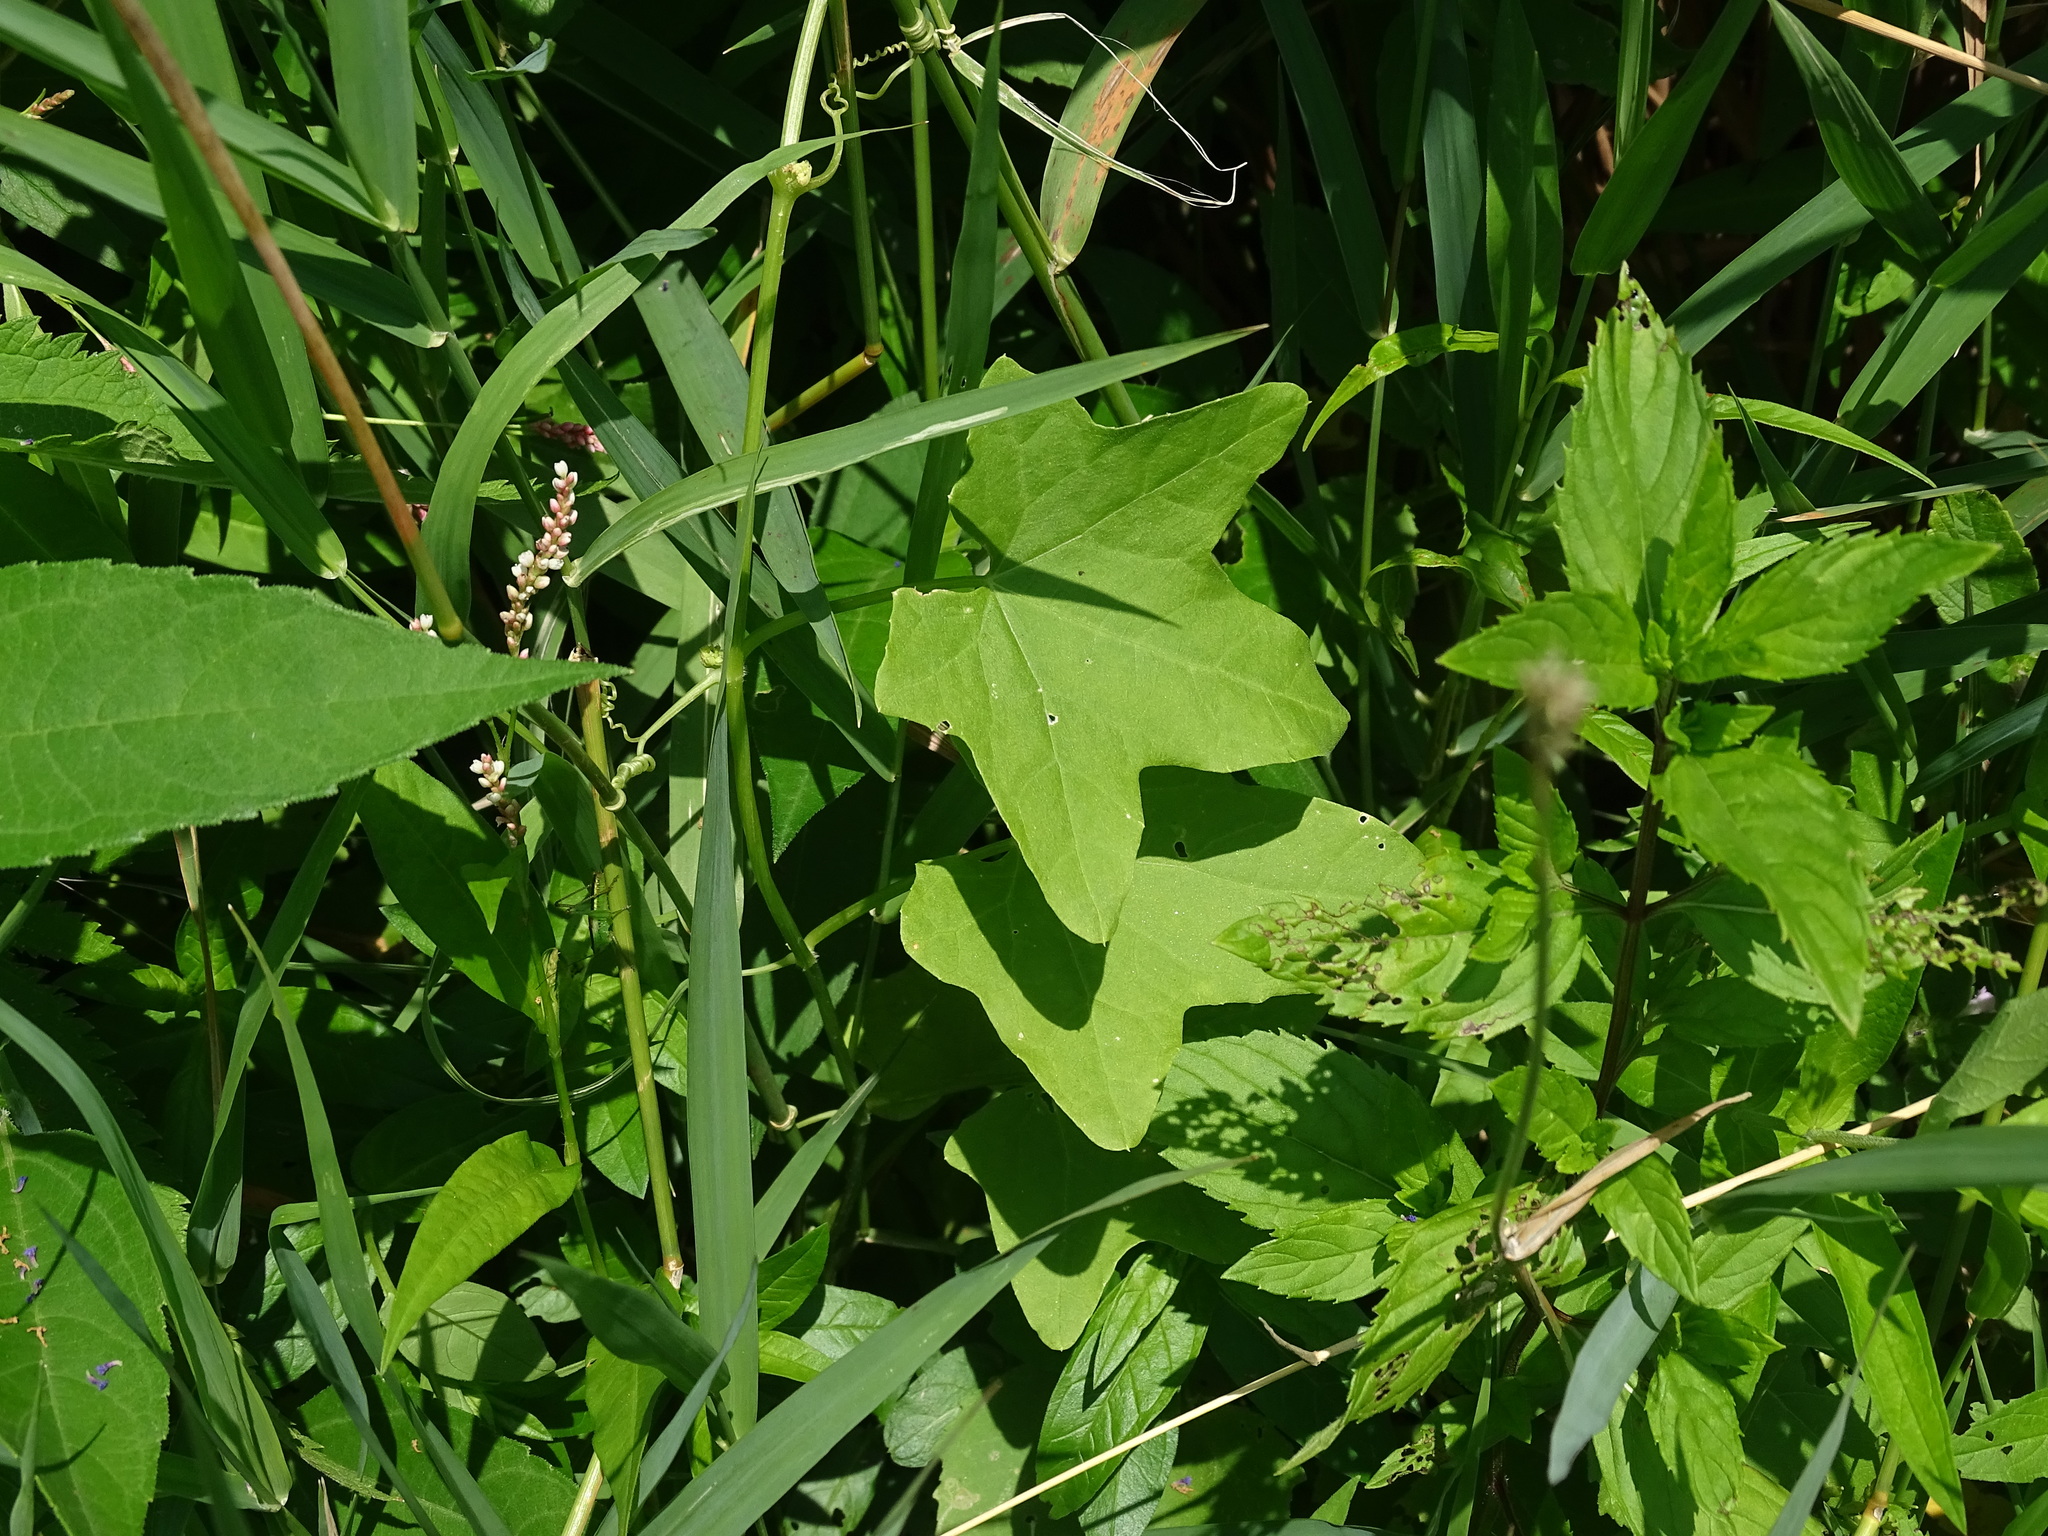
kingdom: Plantae
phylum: Tracheophyta
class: Magnoliopsida
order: Cucurbitales
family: Cucurbitaceae
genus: Echinocystis
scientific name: Echinocystis lobata
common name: Wild cucumber
